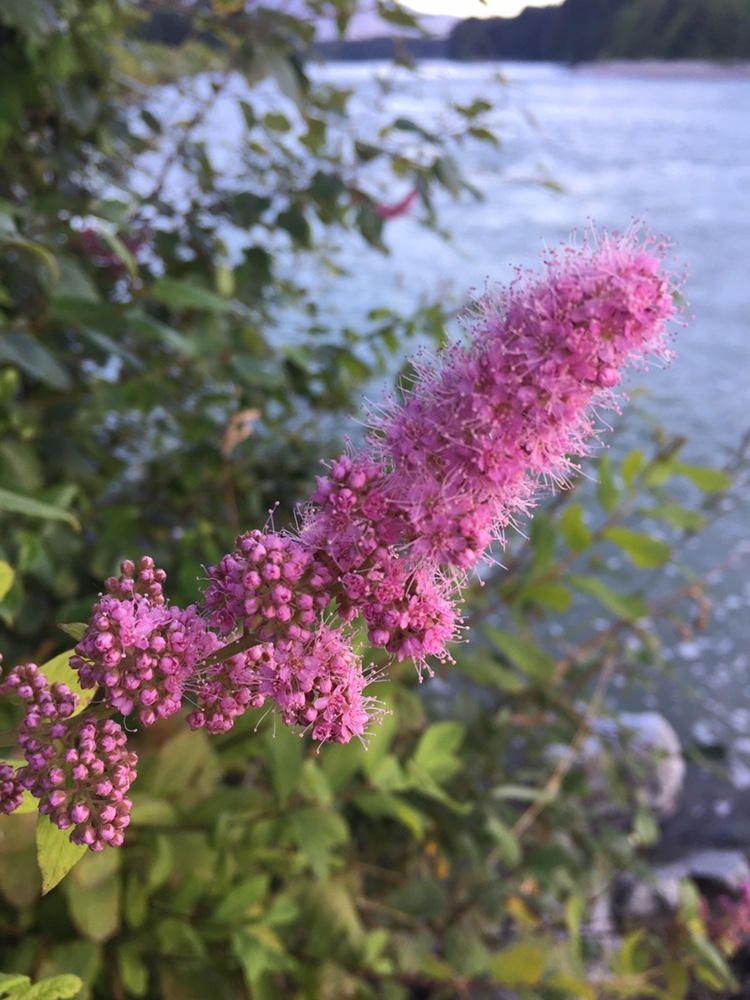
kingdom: Plantae
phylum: Tracheophyta
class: Magnoliopsida
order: Rosales
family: Rosaceae
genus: Spiraea
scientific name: Spiraea douglasii
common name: Steeplebush
